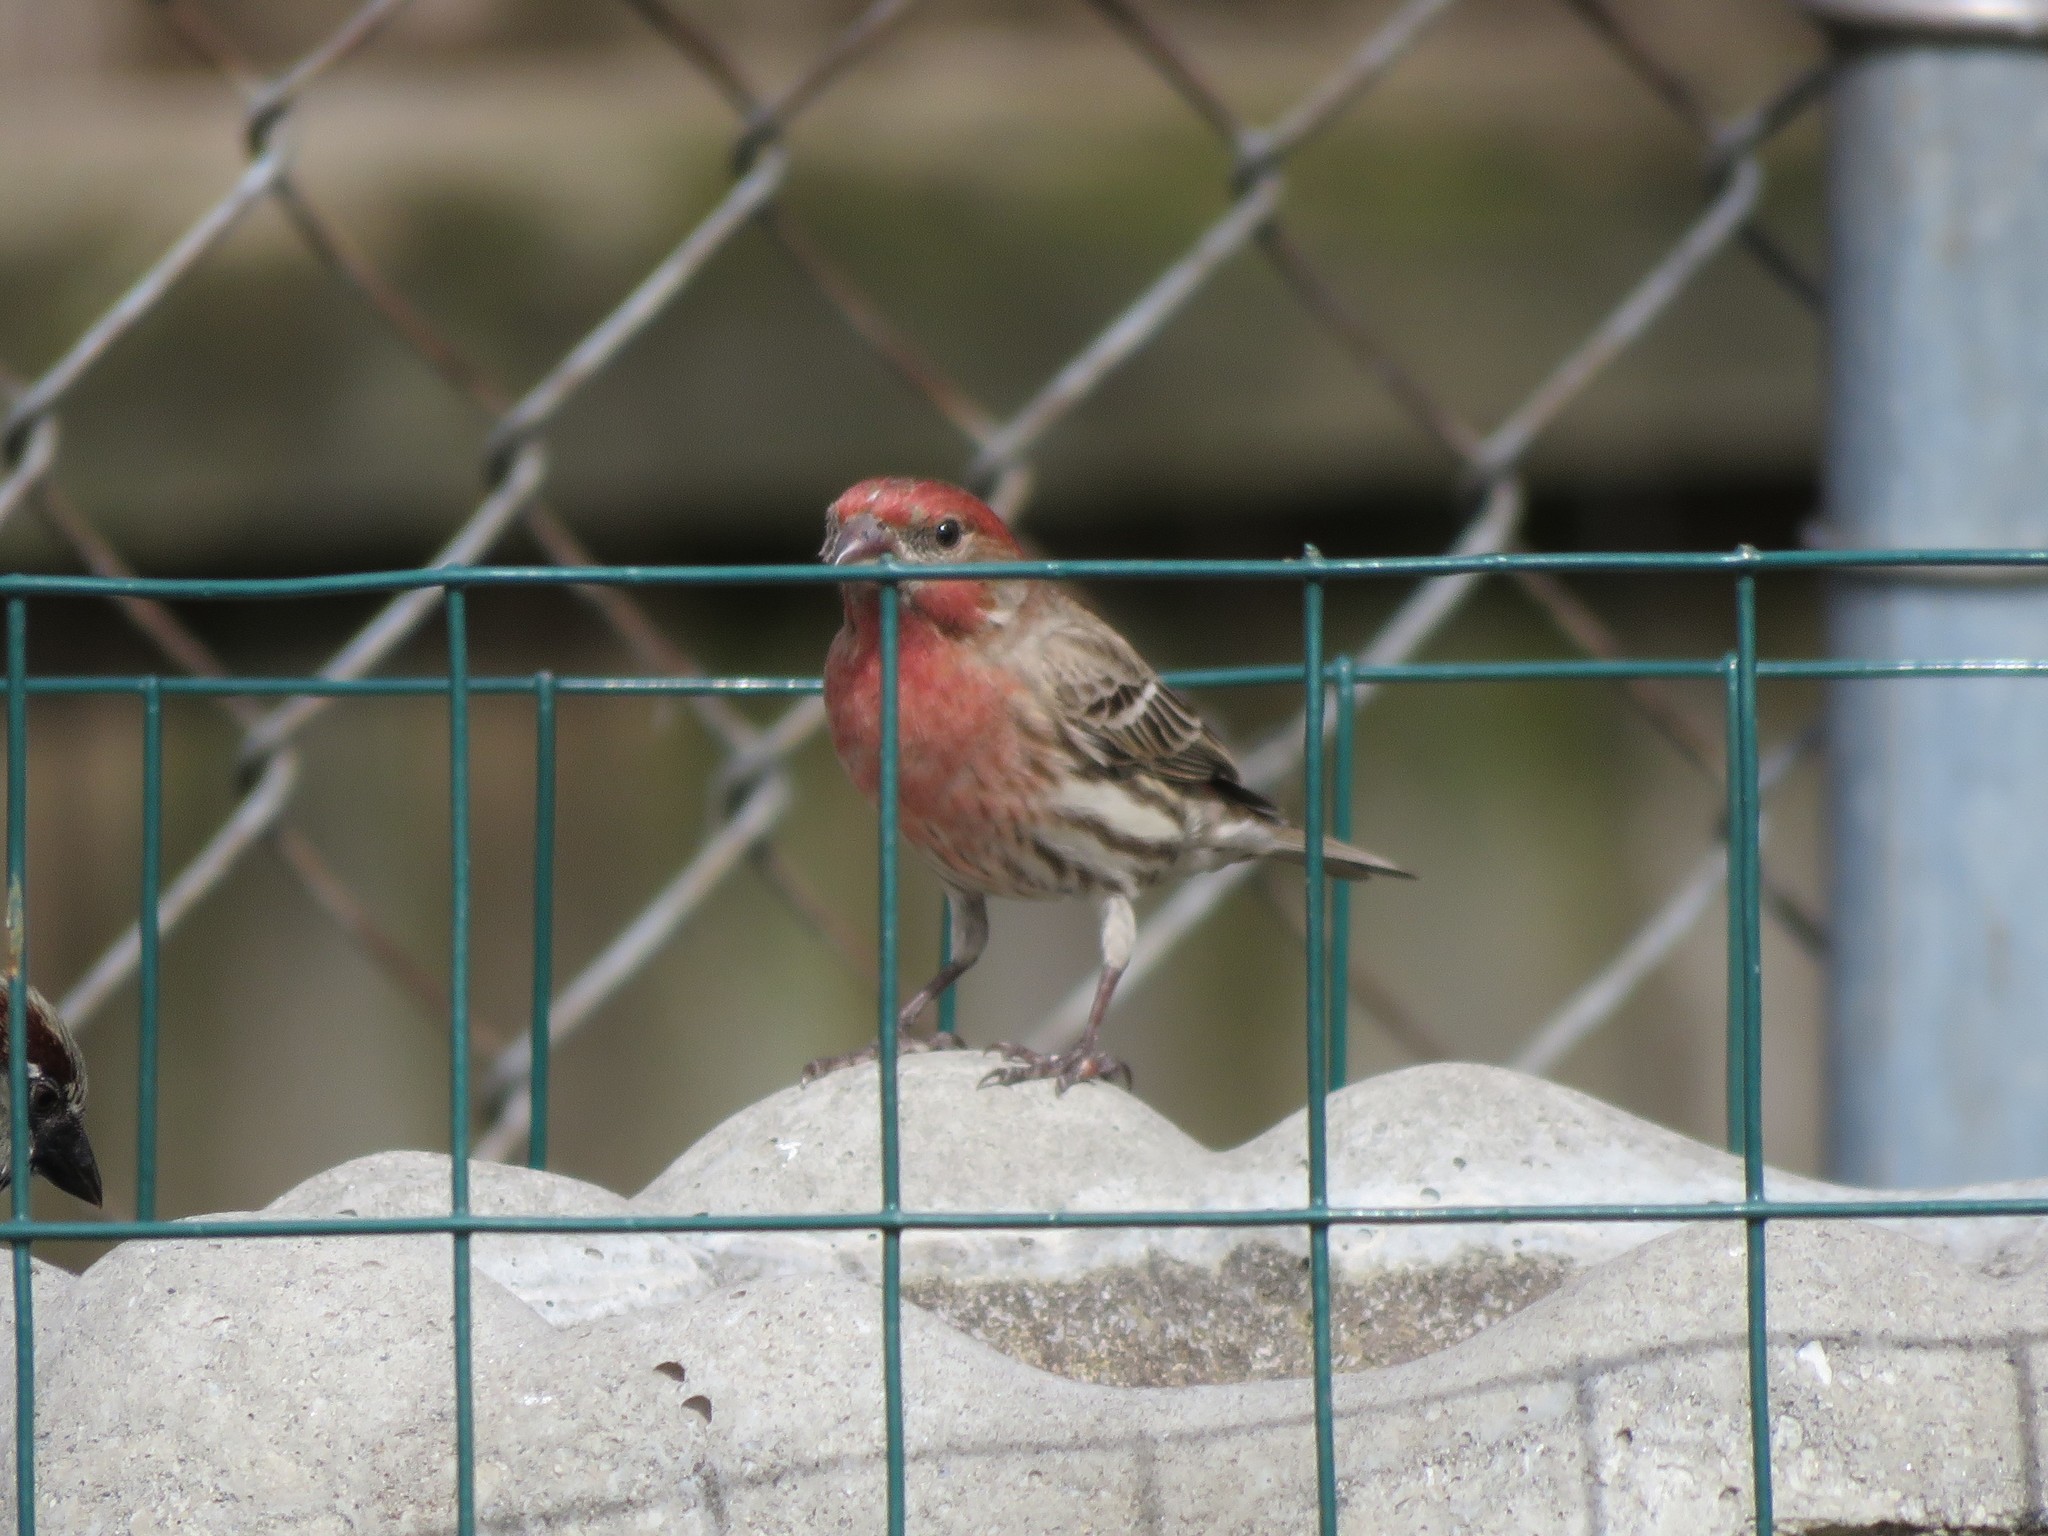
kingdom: Animalia
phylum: Chordata
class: Aves
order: Passeriformes
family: Fringillidae
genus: Haemorhous
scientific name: Haemorhous mexicanus
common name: House finch
